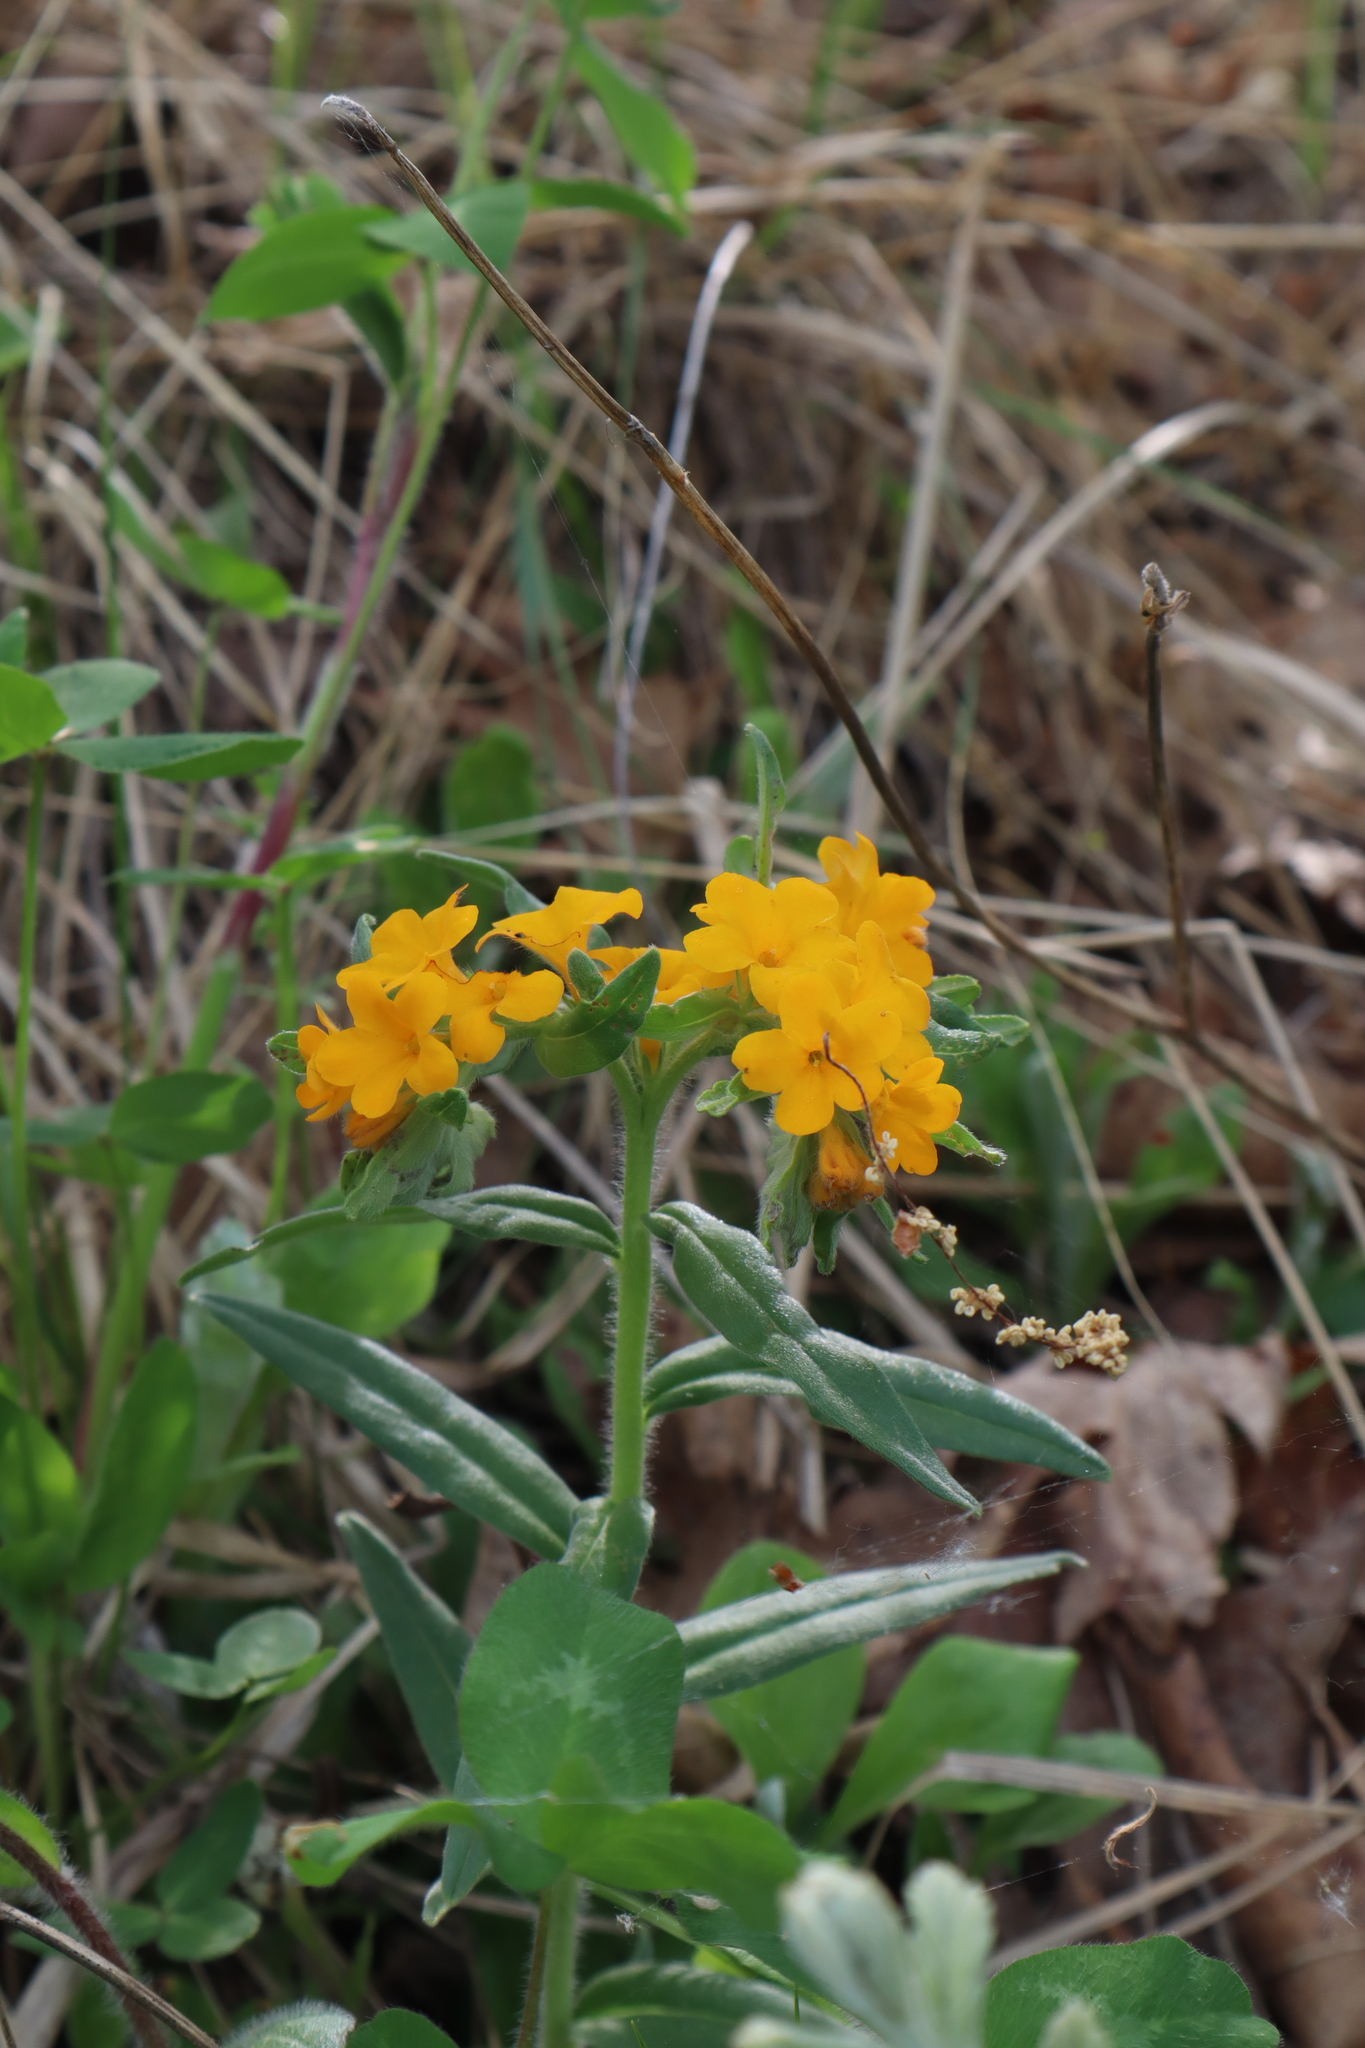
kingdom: Plantae
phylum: Tracheophyta
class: Magnoliopsida
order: Boraginales
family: Boraginaceae
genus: Lithospermum
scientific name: Lithospermum canescens
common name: Hoary puccoon
